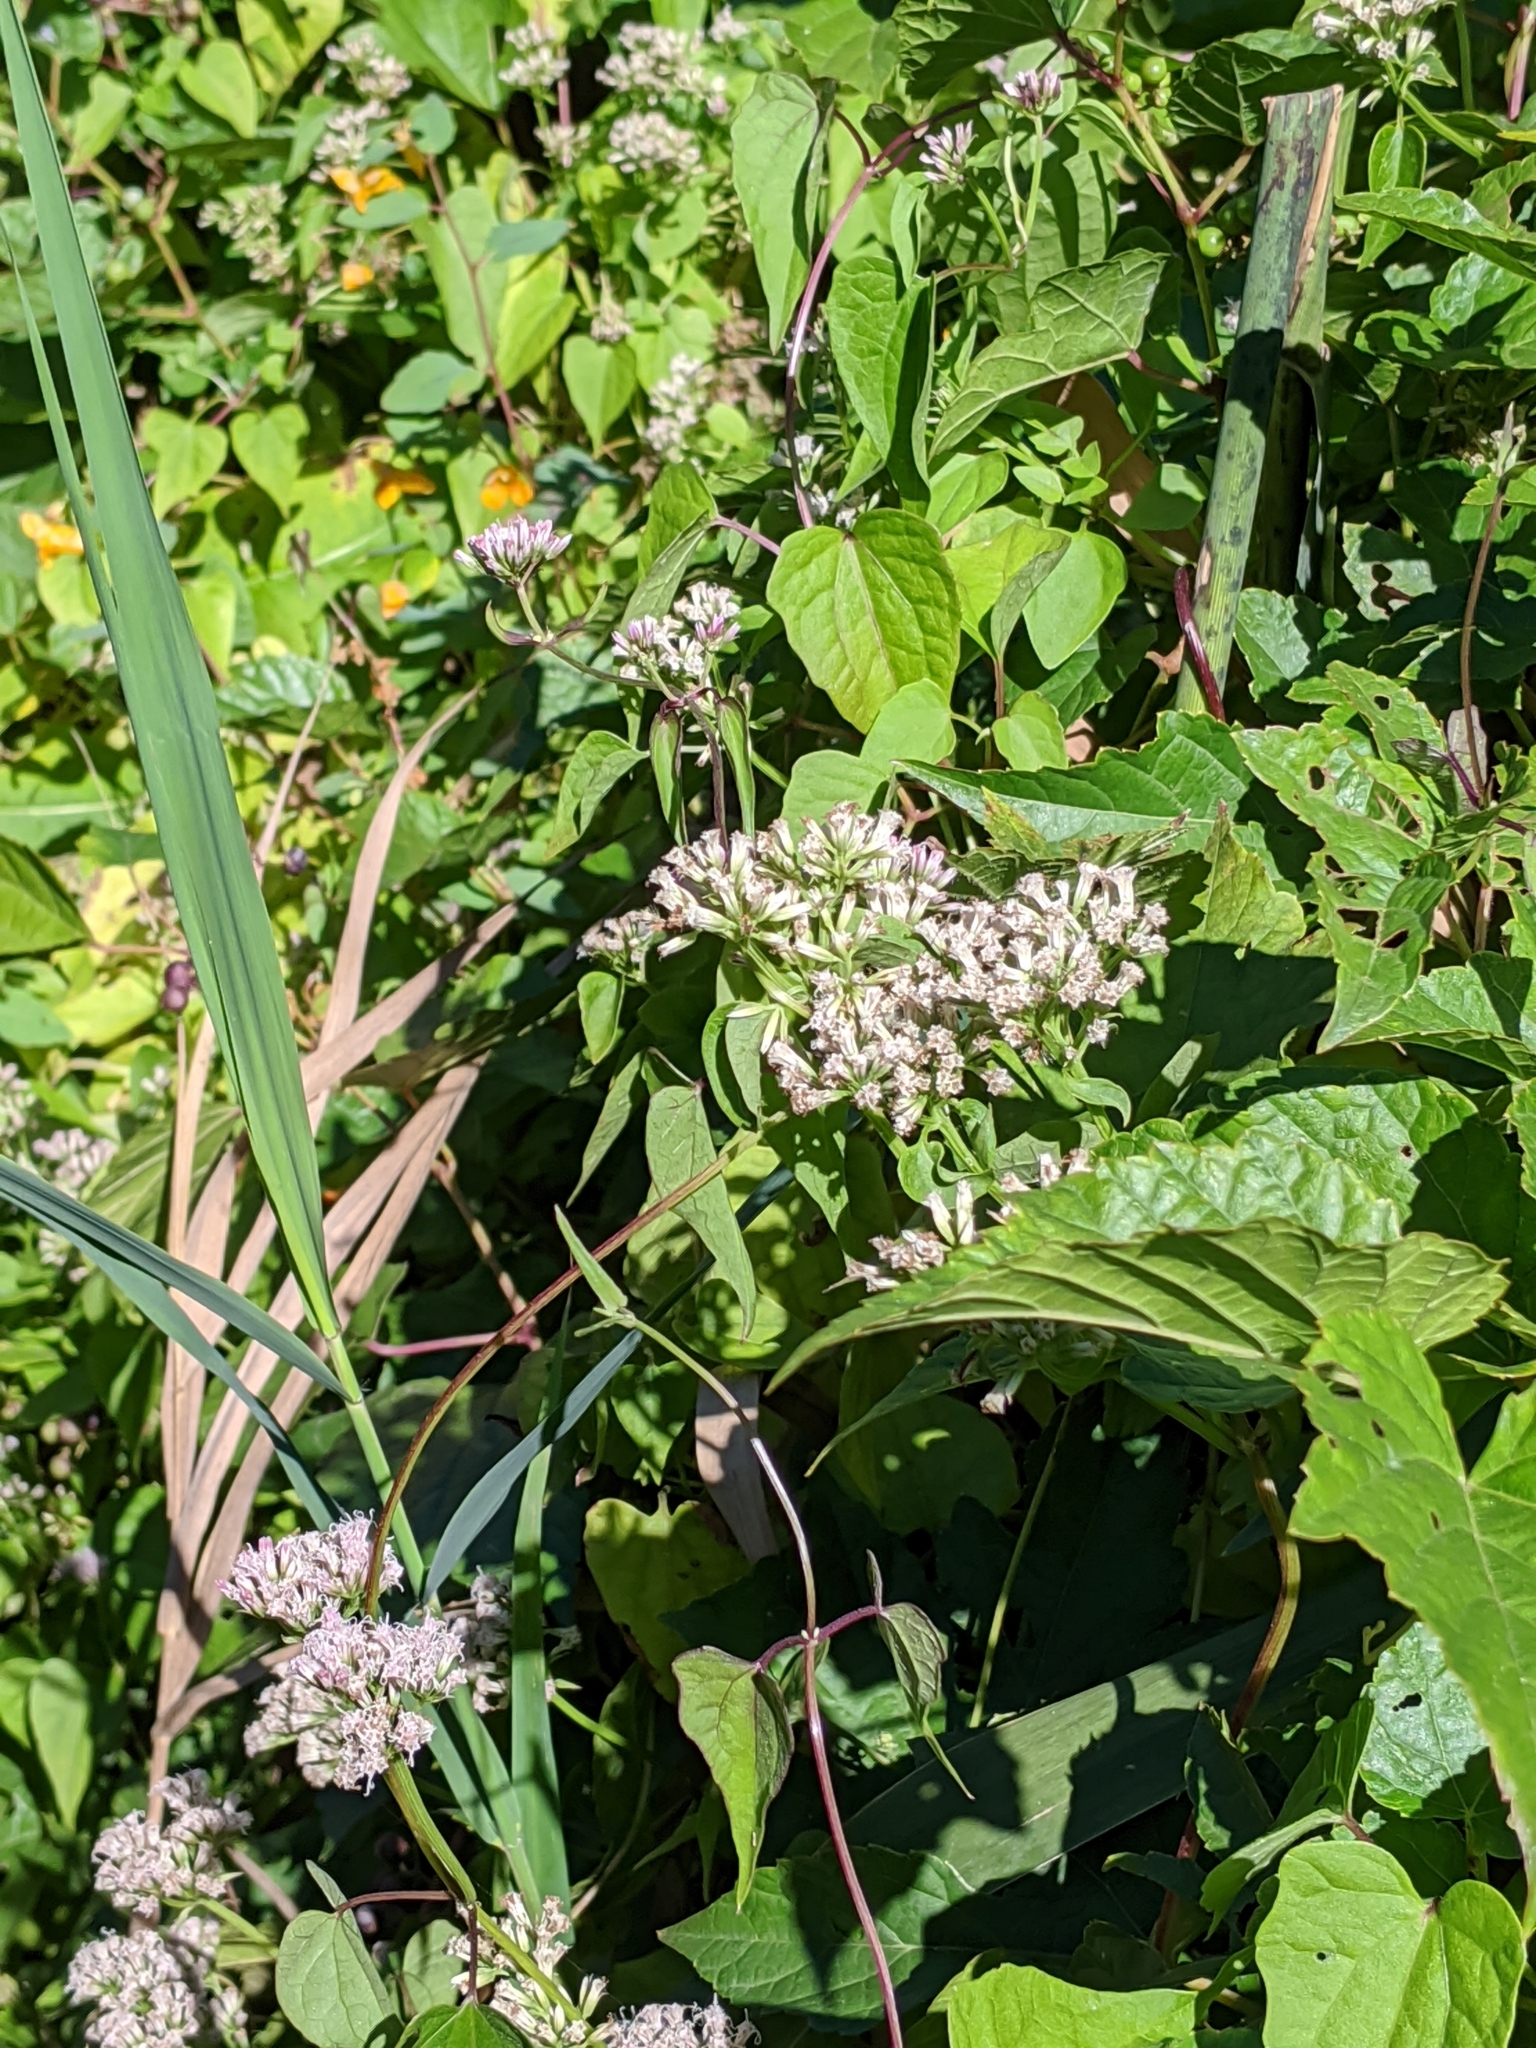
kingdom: Plantae
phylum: Tracheophyta
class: Magnoliopsida
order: Asterales
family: Asteraceae
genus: Mikania
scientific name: Mikania scandens
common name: Climbing hempvine
